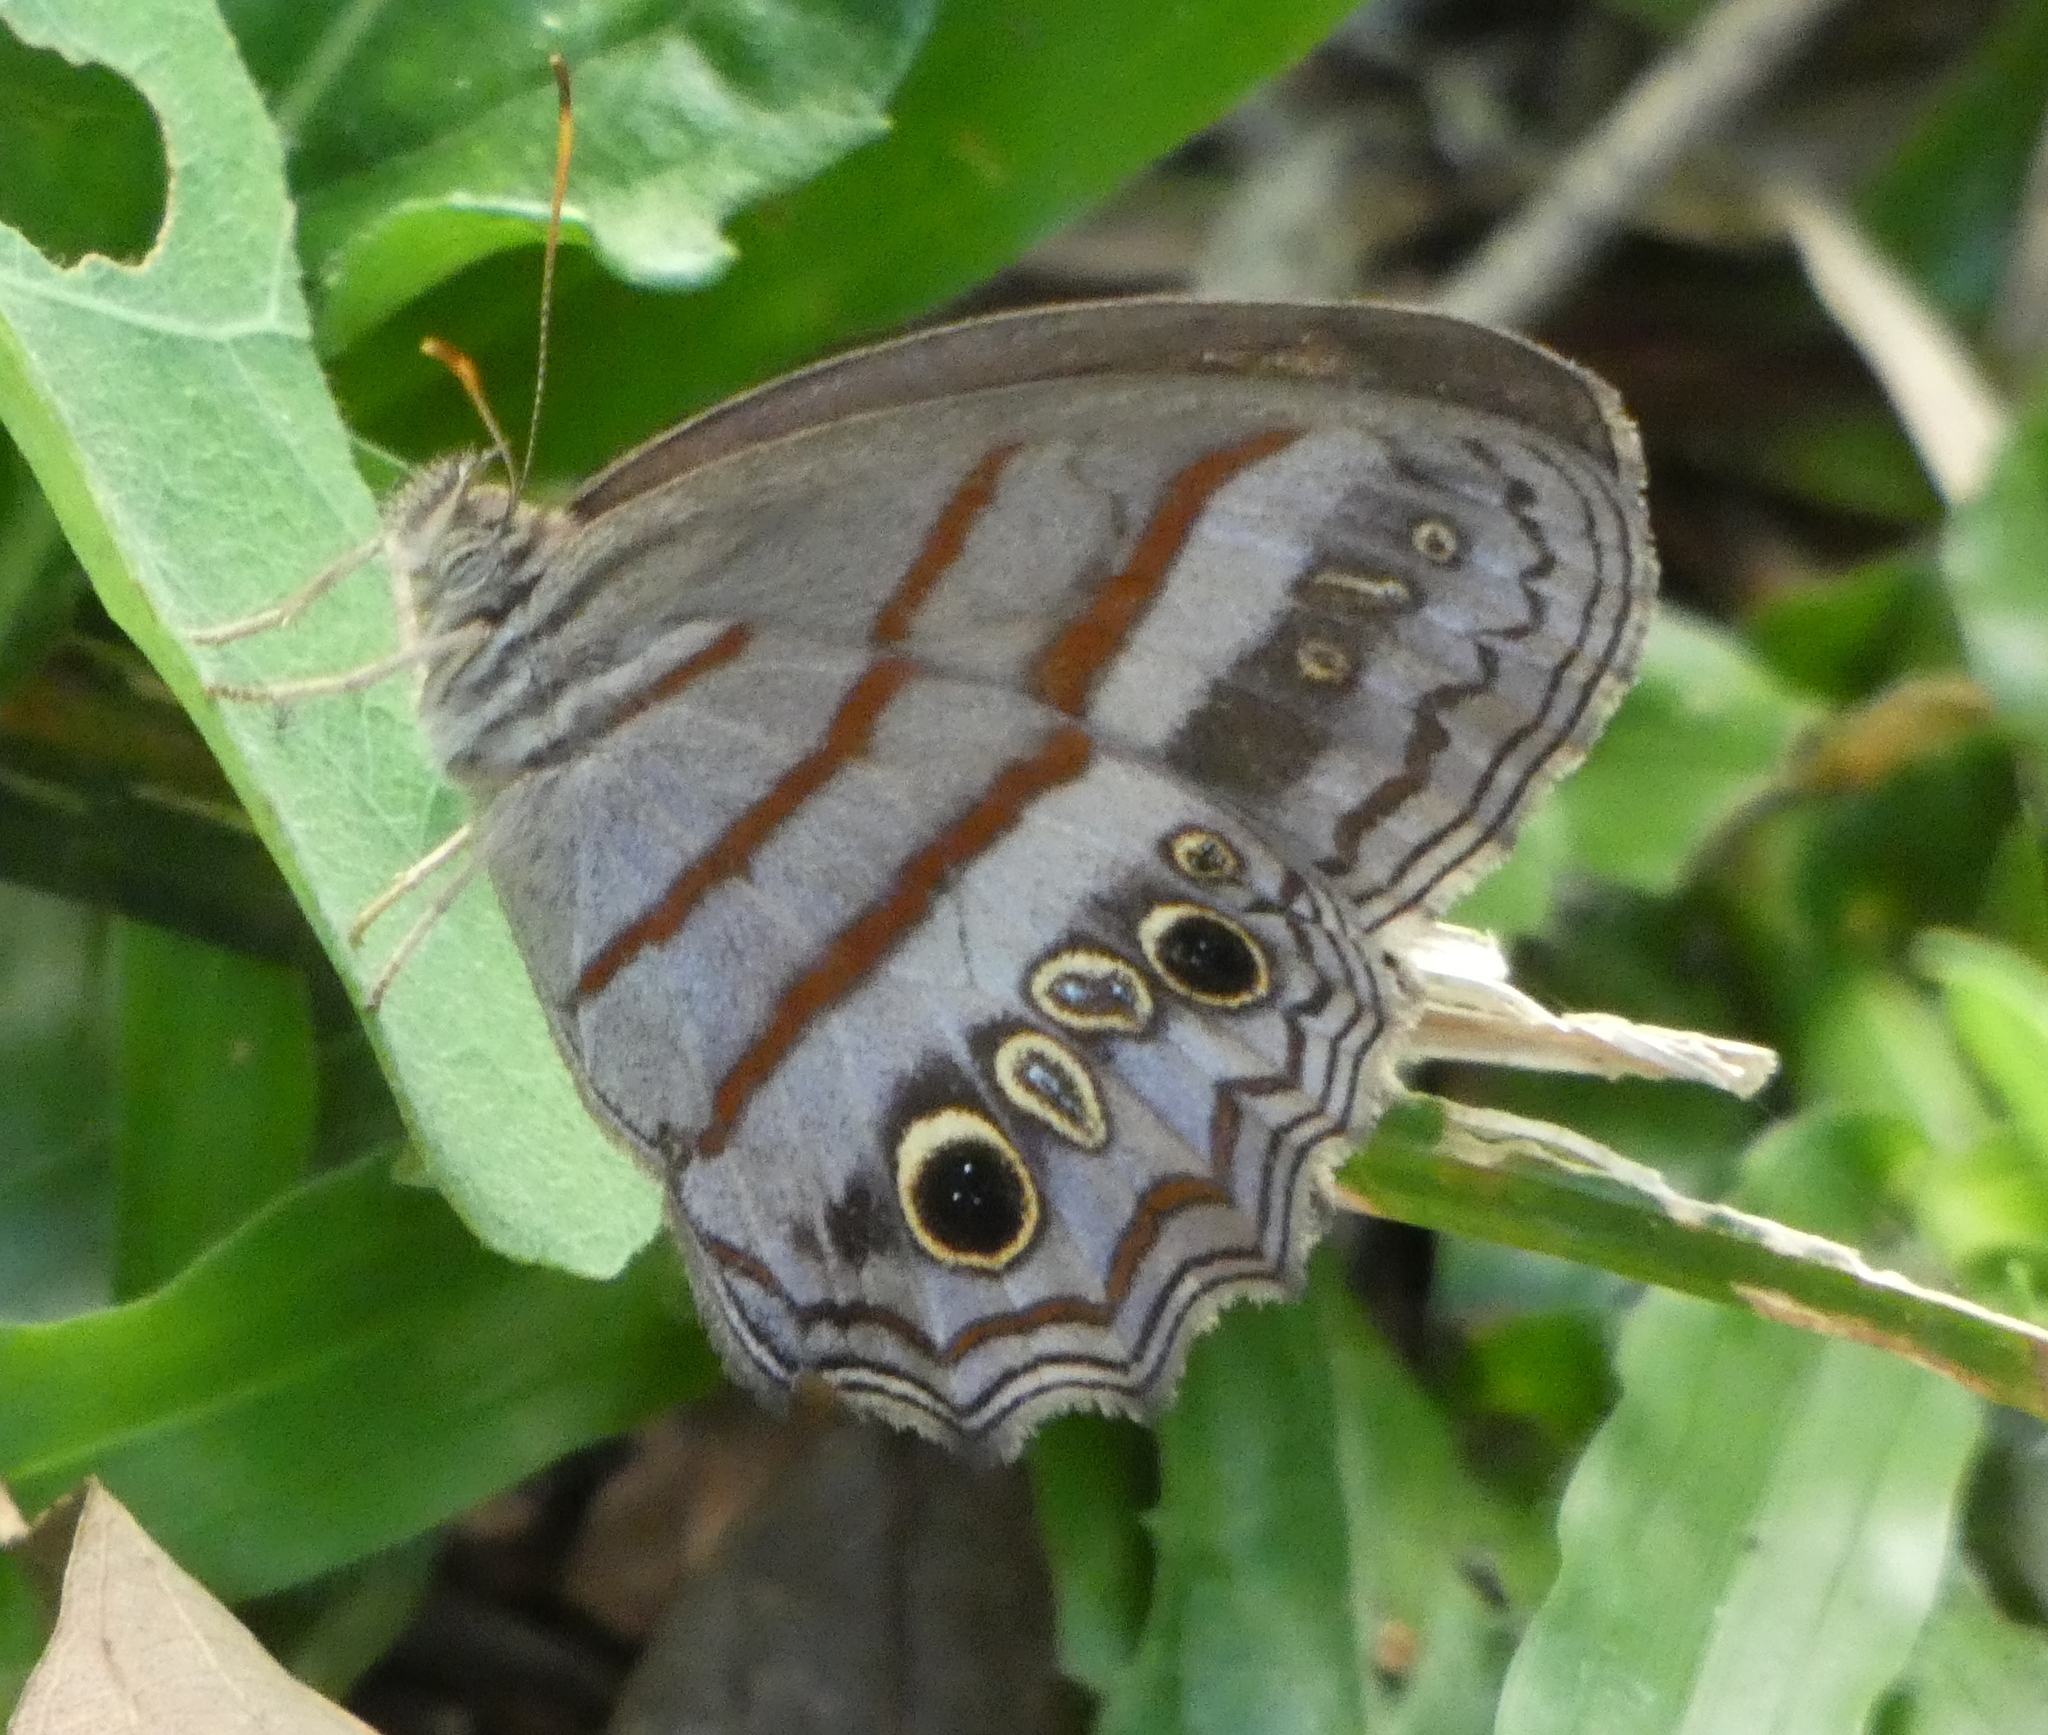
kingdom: Animalia
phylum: Arthropoda
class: Insecta
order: Lepidoptera
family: Nymphalidae
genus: Magneuptychia
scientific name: Magneuptychia libye
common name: Blue-gray satyr
